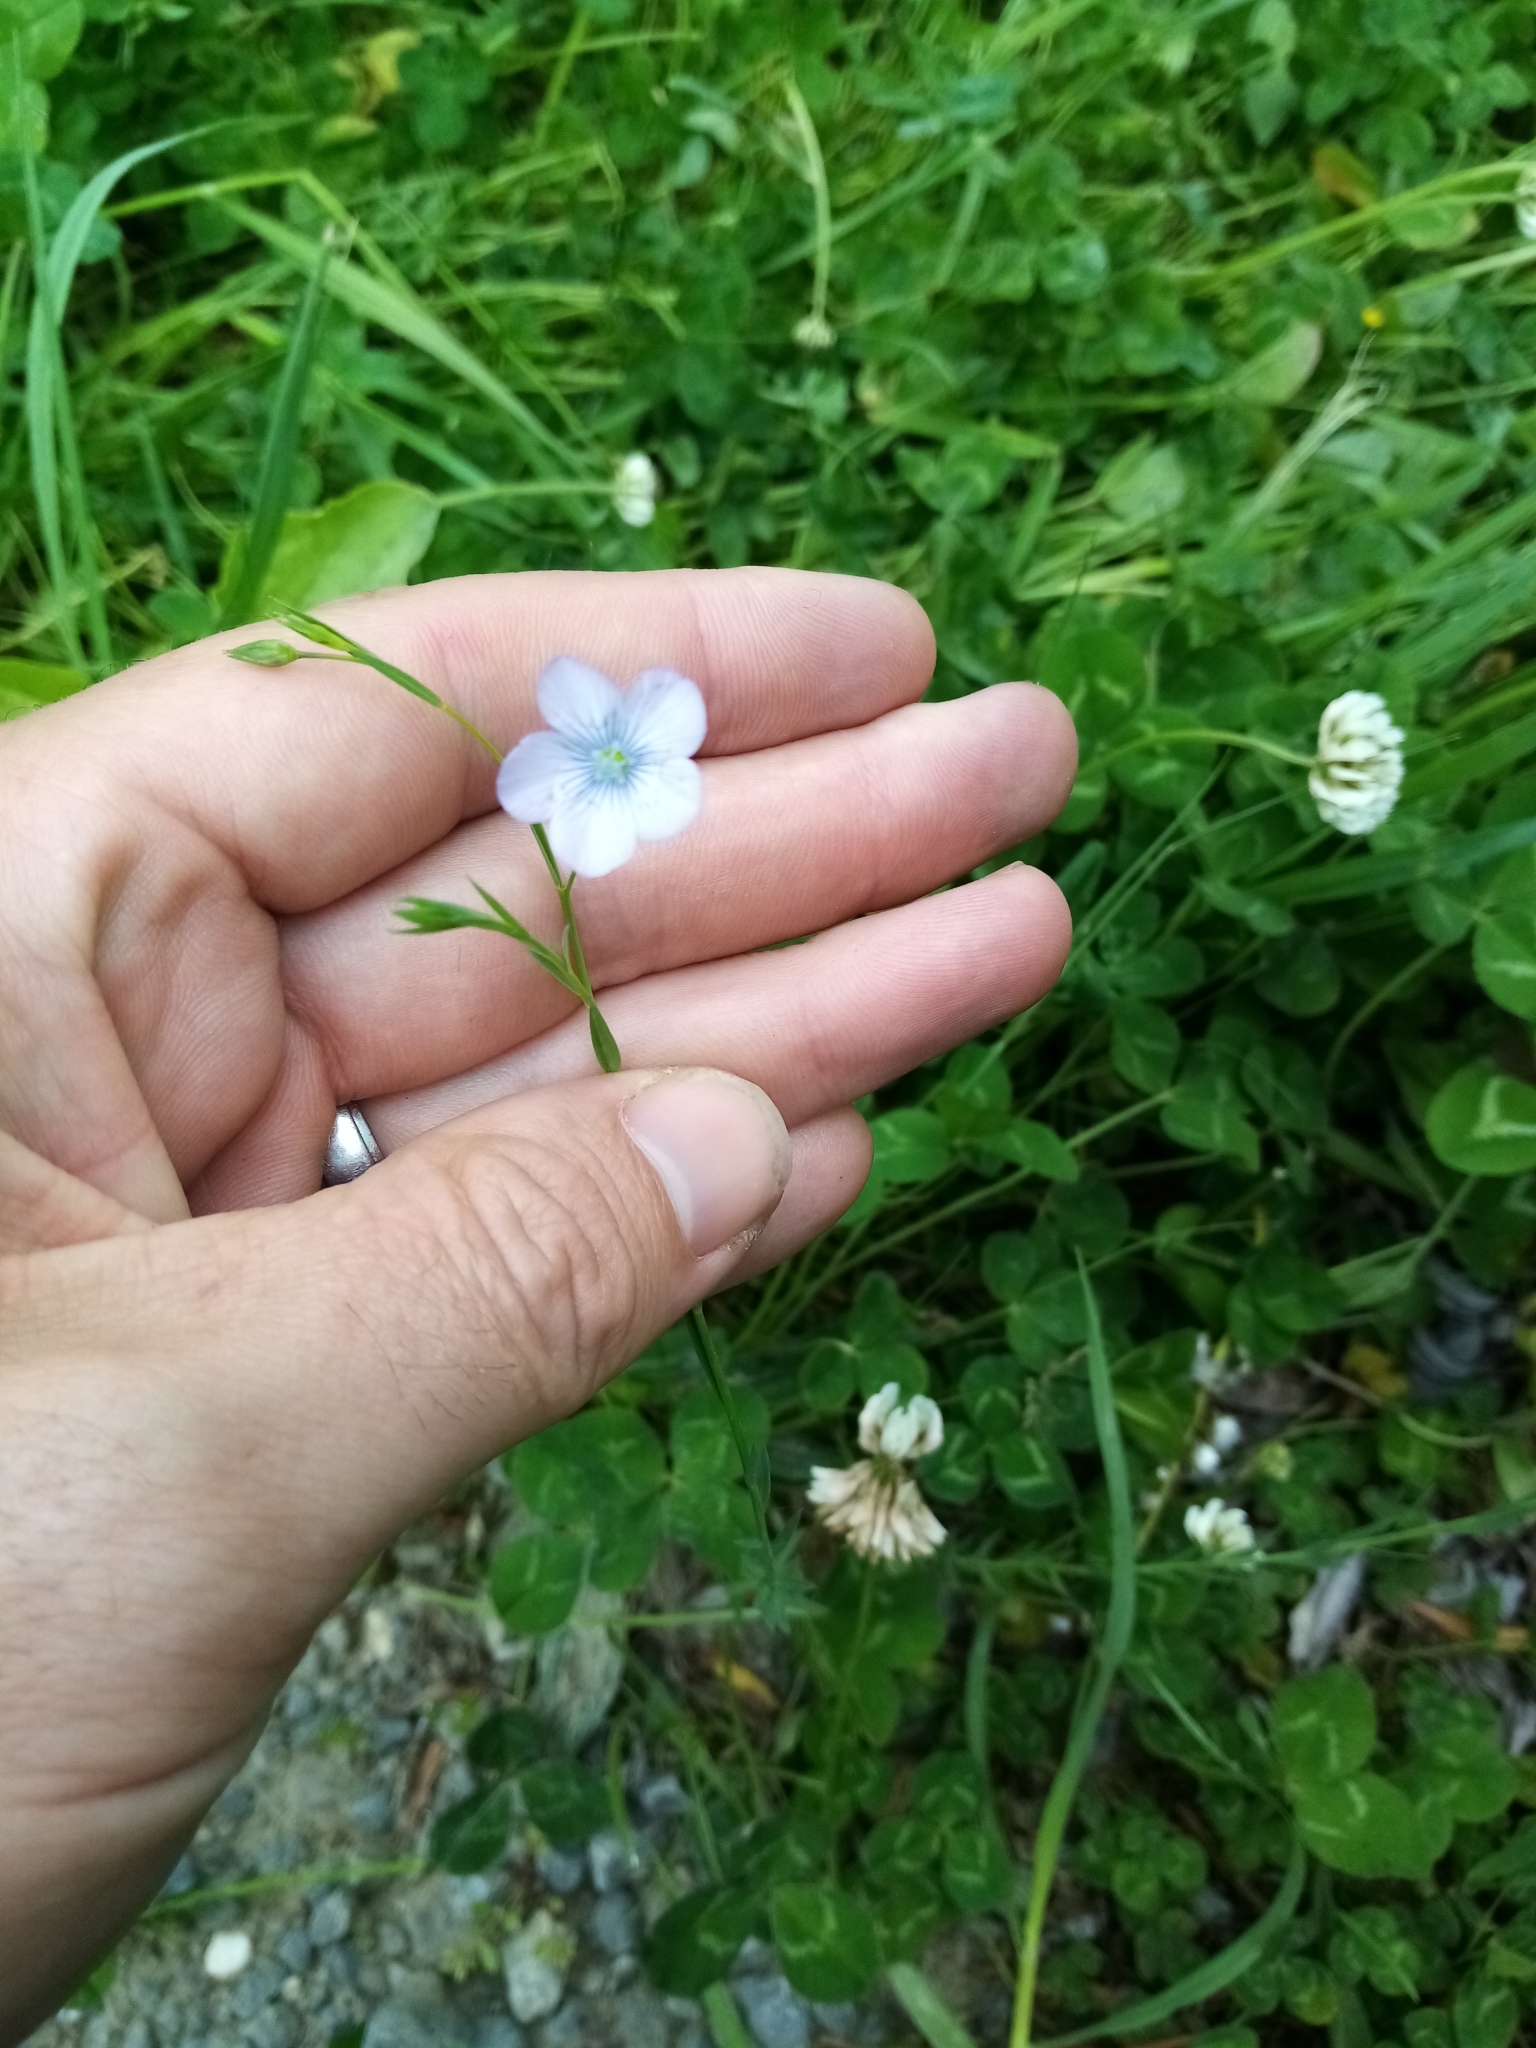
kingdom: Plantae
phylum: Tracheophyta
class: Magnoliopsida
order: Malpighiales
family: Linaceae
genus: Linum
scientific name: Linum bienne
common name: Pale flax
